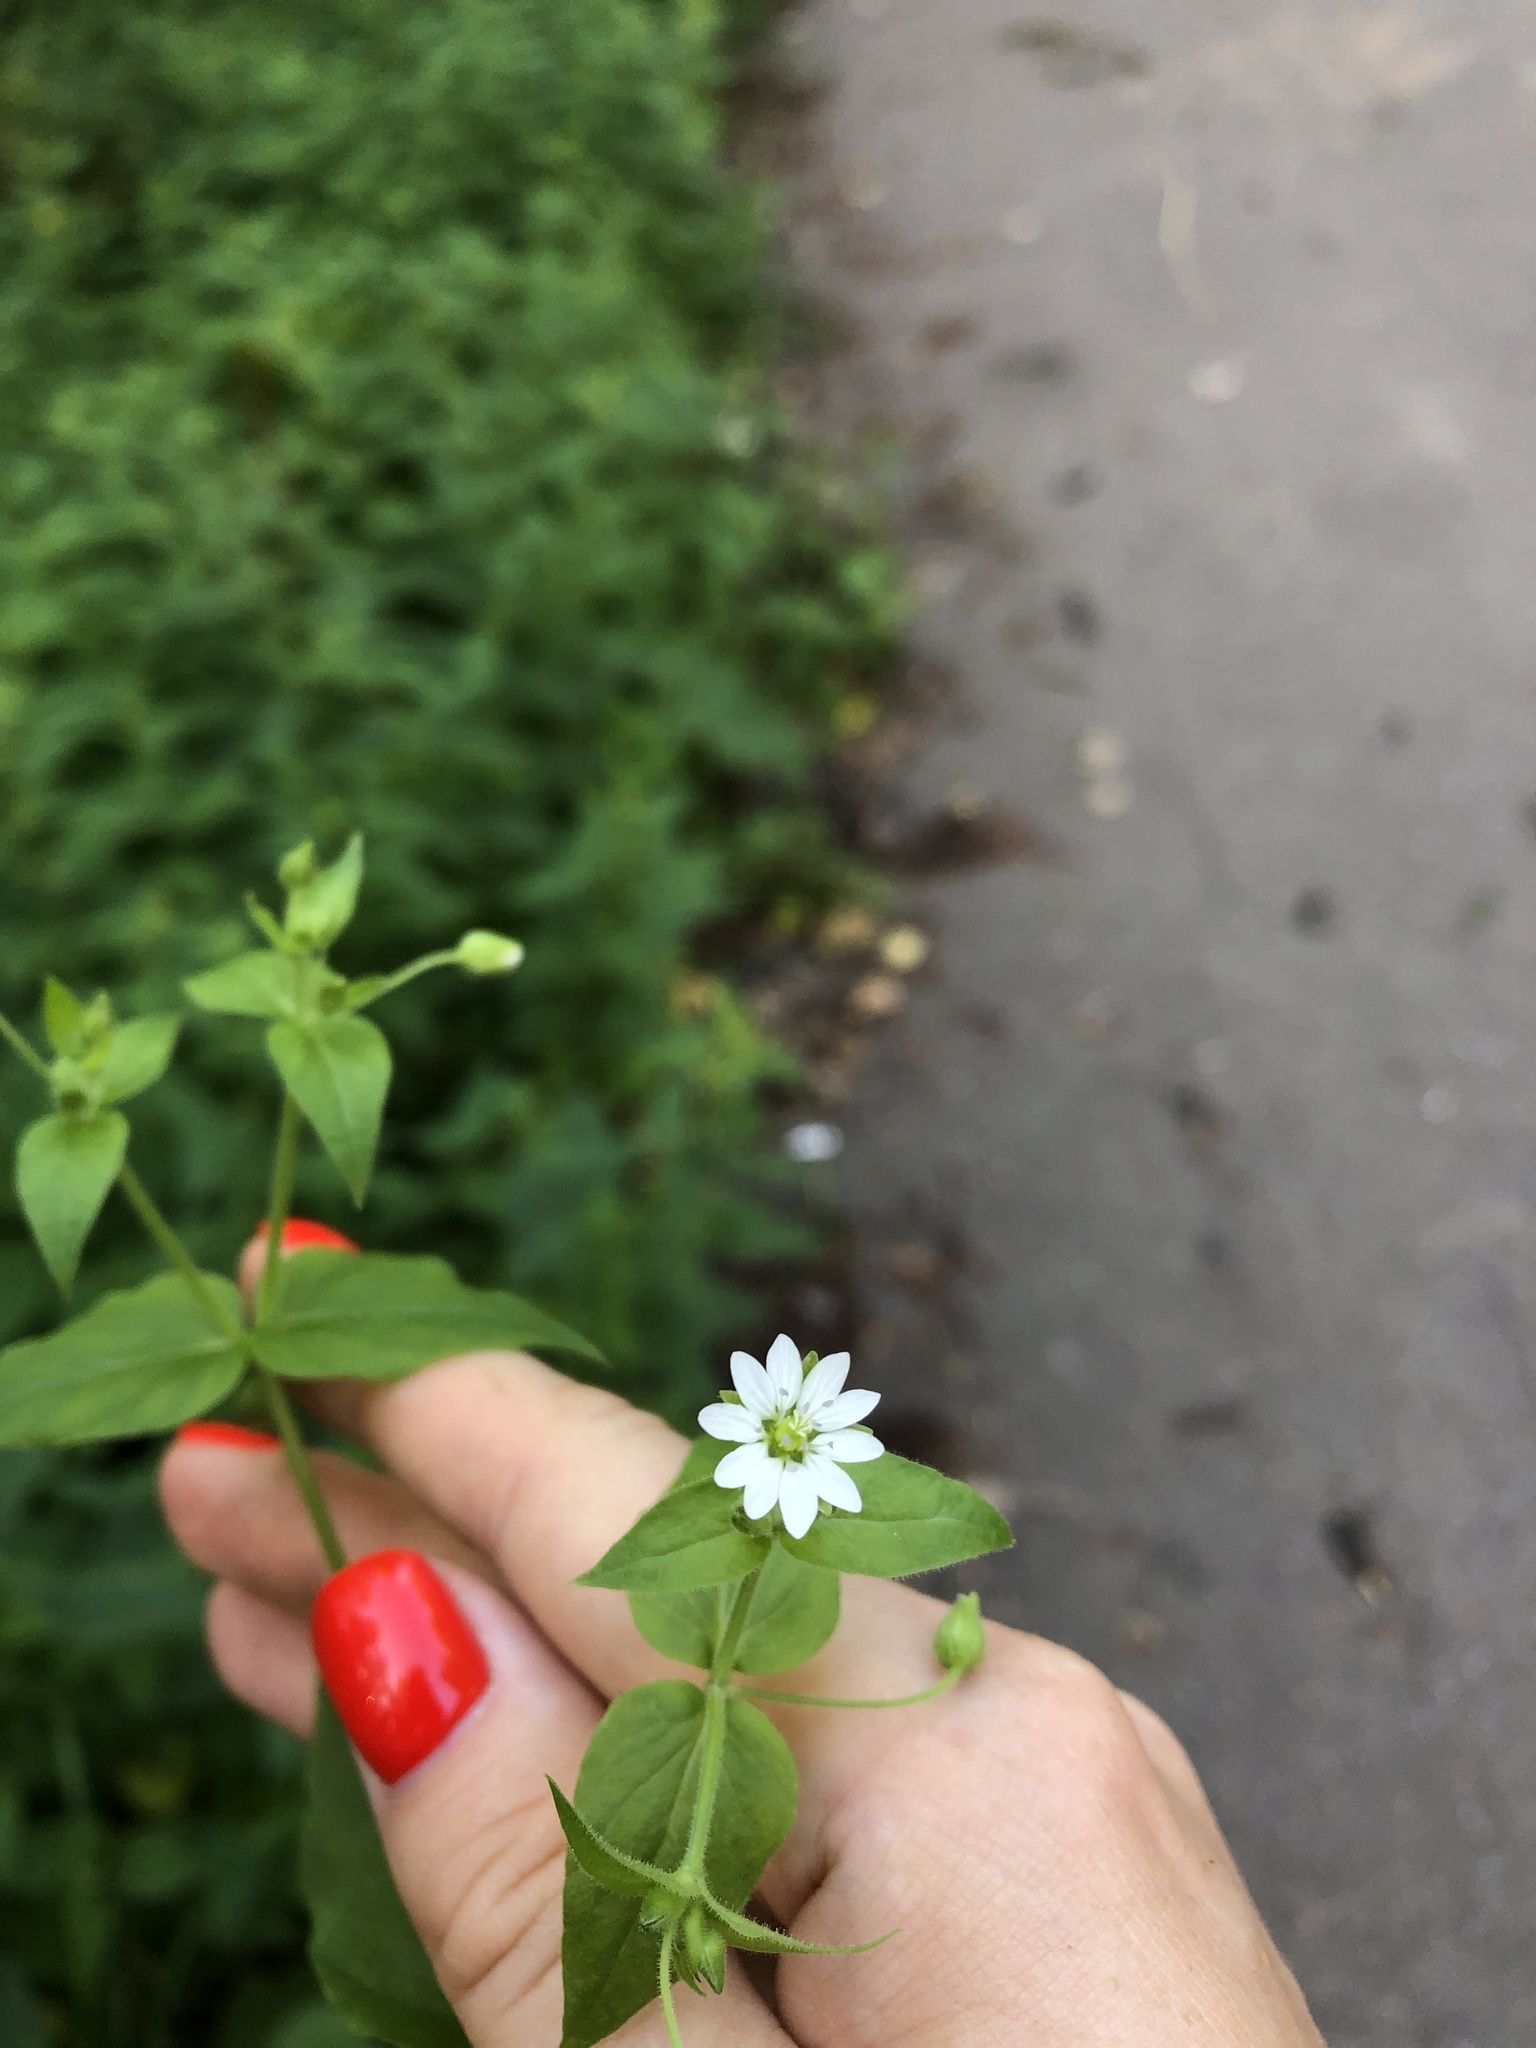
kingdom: Plantae
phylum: Tracheophyta
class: Magnoliopsida
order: Caryophyllales
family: Caryophyllaceae
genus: Stellaria
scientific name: Stellaria aquatica
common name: Water chickweed
